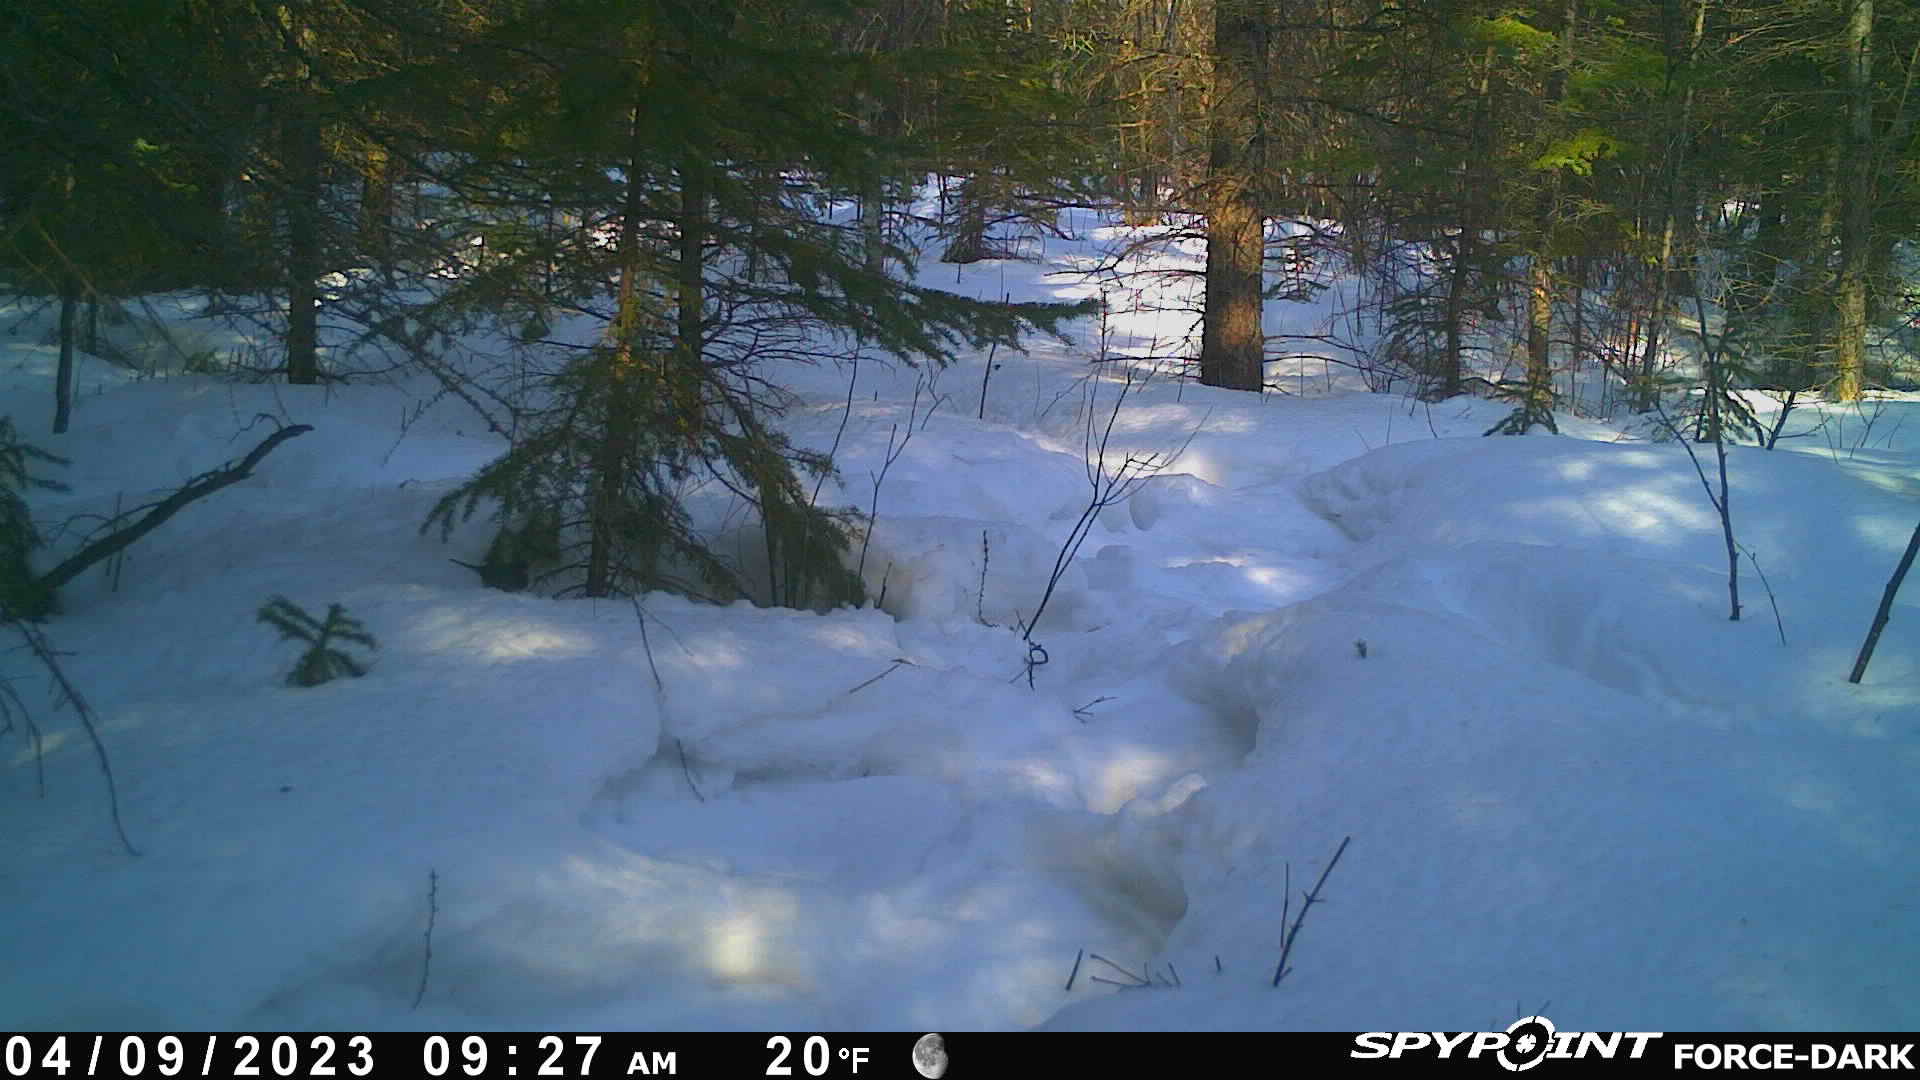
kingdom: Animalia
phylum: Chordata
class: Aves
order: Passeriformes
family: Passerellidae
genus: Junco
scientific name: Junco hyemalis
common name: Dark-eyed junco
